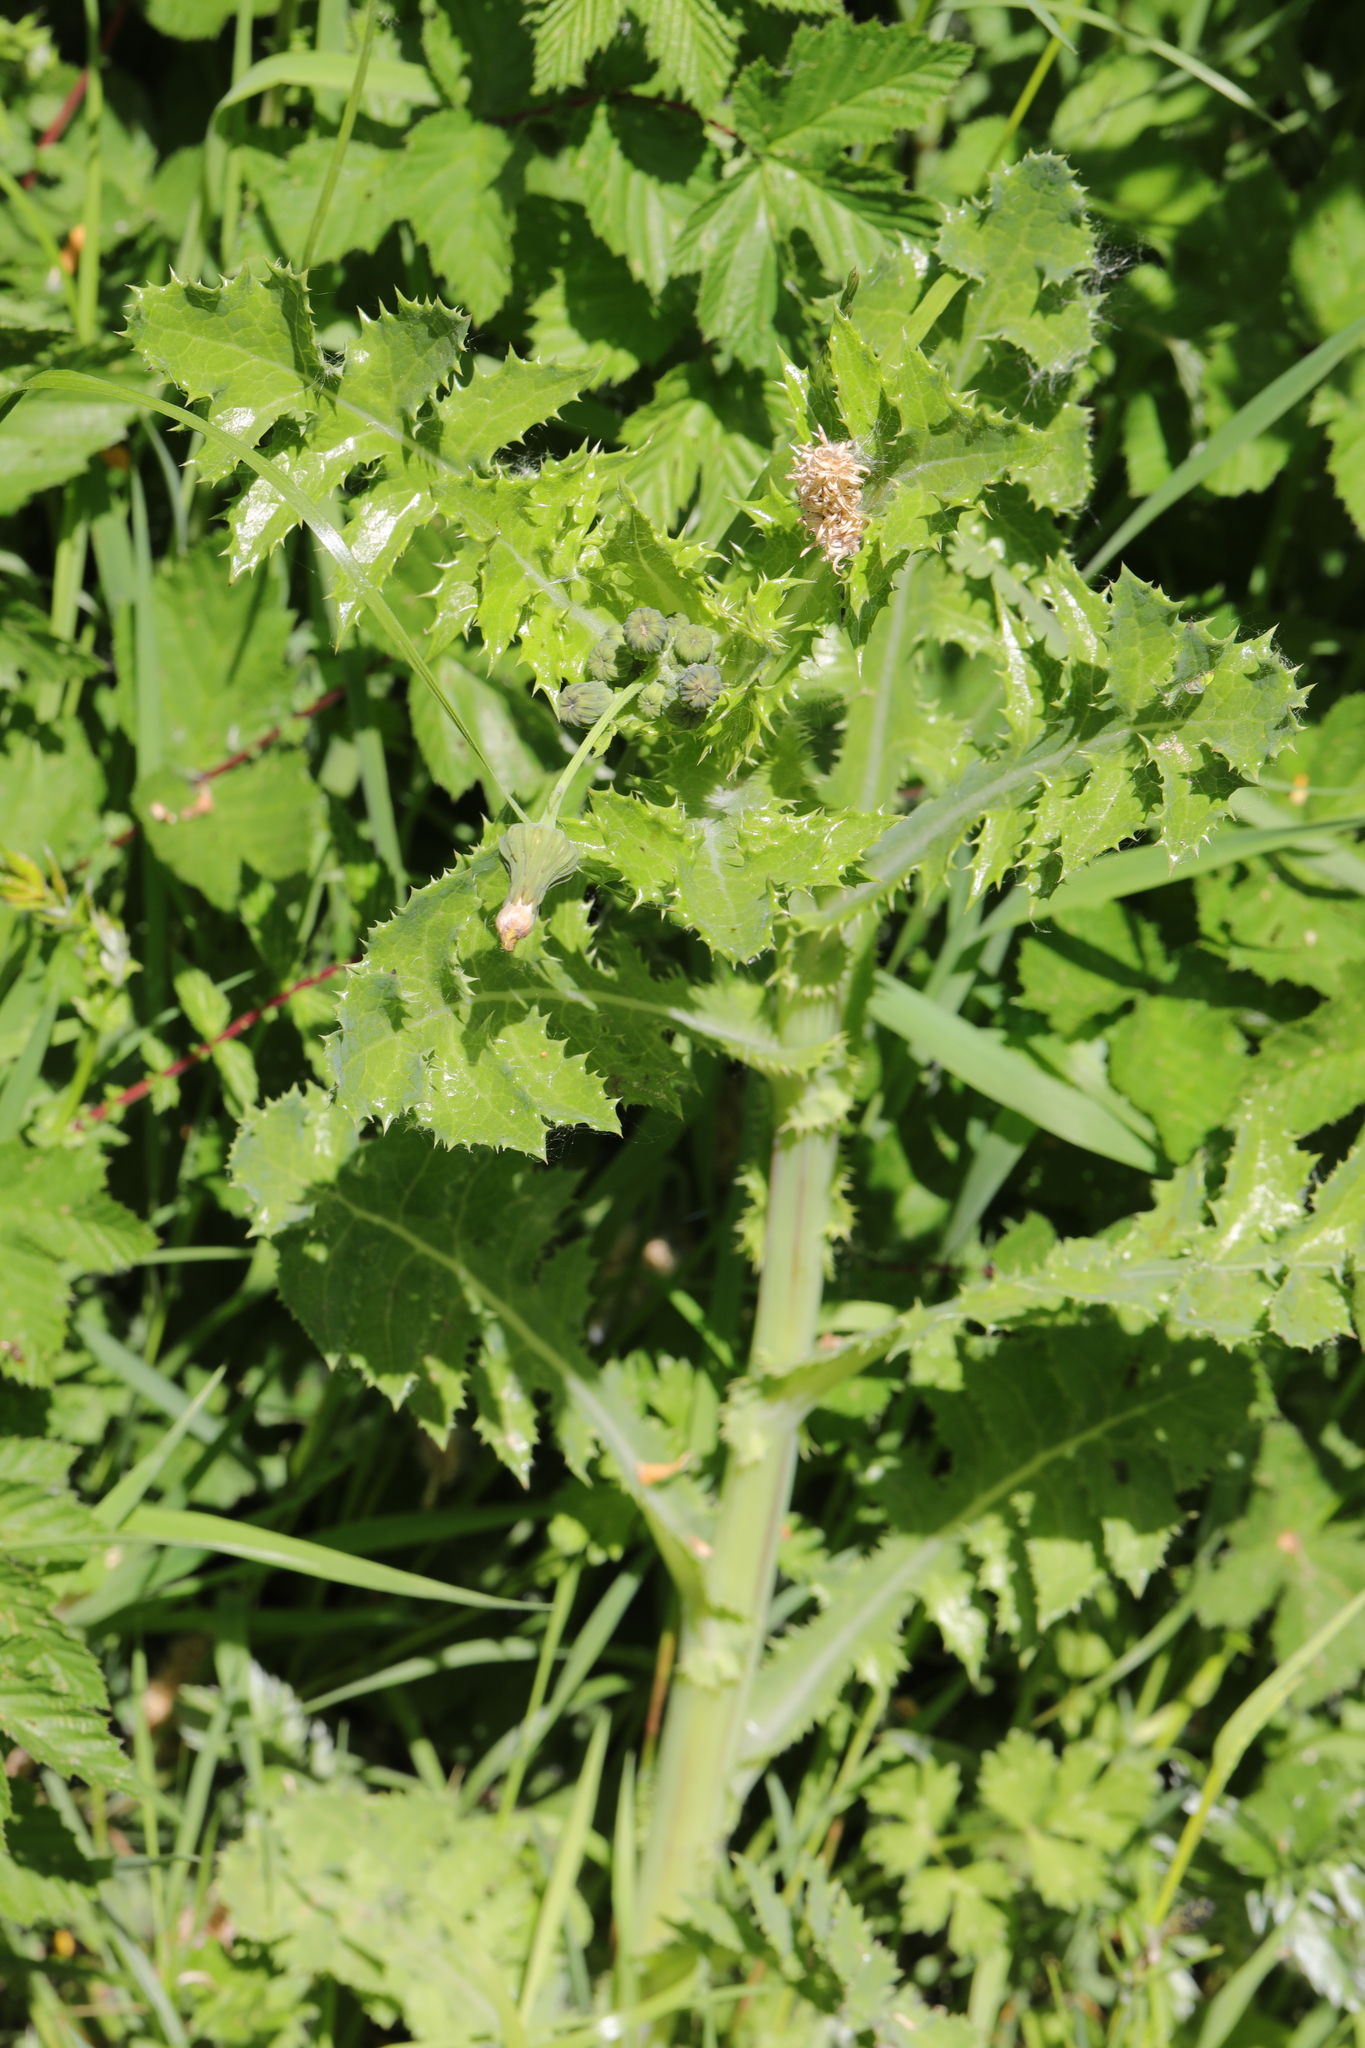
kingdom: Plantae
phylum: Tracheophyta
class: Magnoliopsida
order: Asterales
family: Asteraceae
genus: Sonchus
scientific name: Sonchus asper
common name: Prickly sow-thistle
